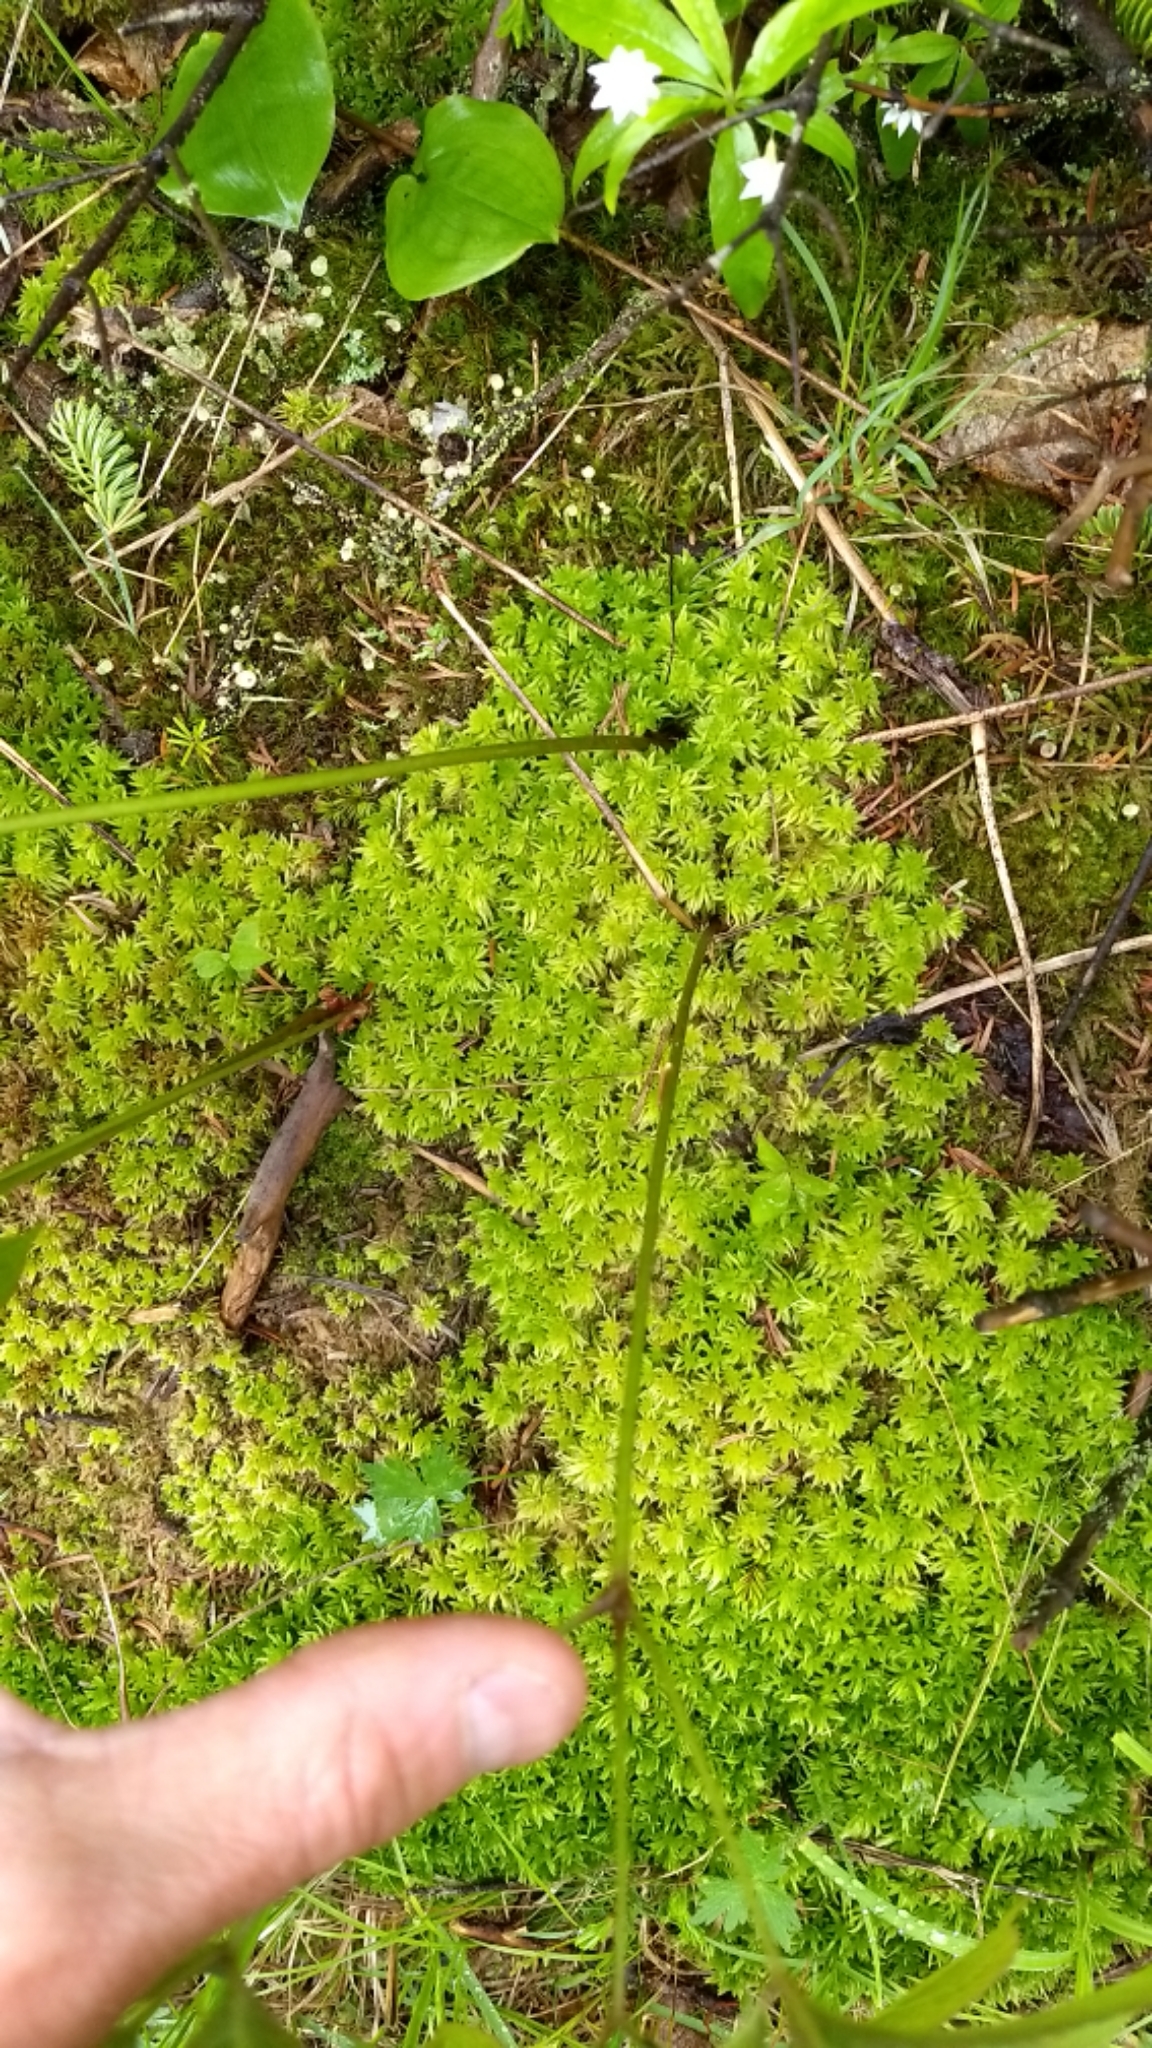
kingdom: Plantae
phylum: Tracheophyta
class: Magnoliopsida
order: Apiales
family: Araliaceae
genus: Aralia
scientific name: Aralia nudicaulis
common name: Wild sarsaparilla
